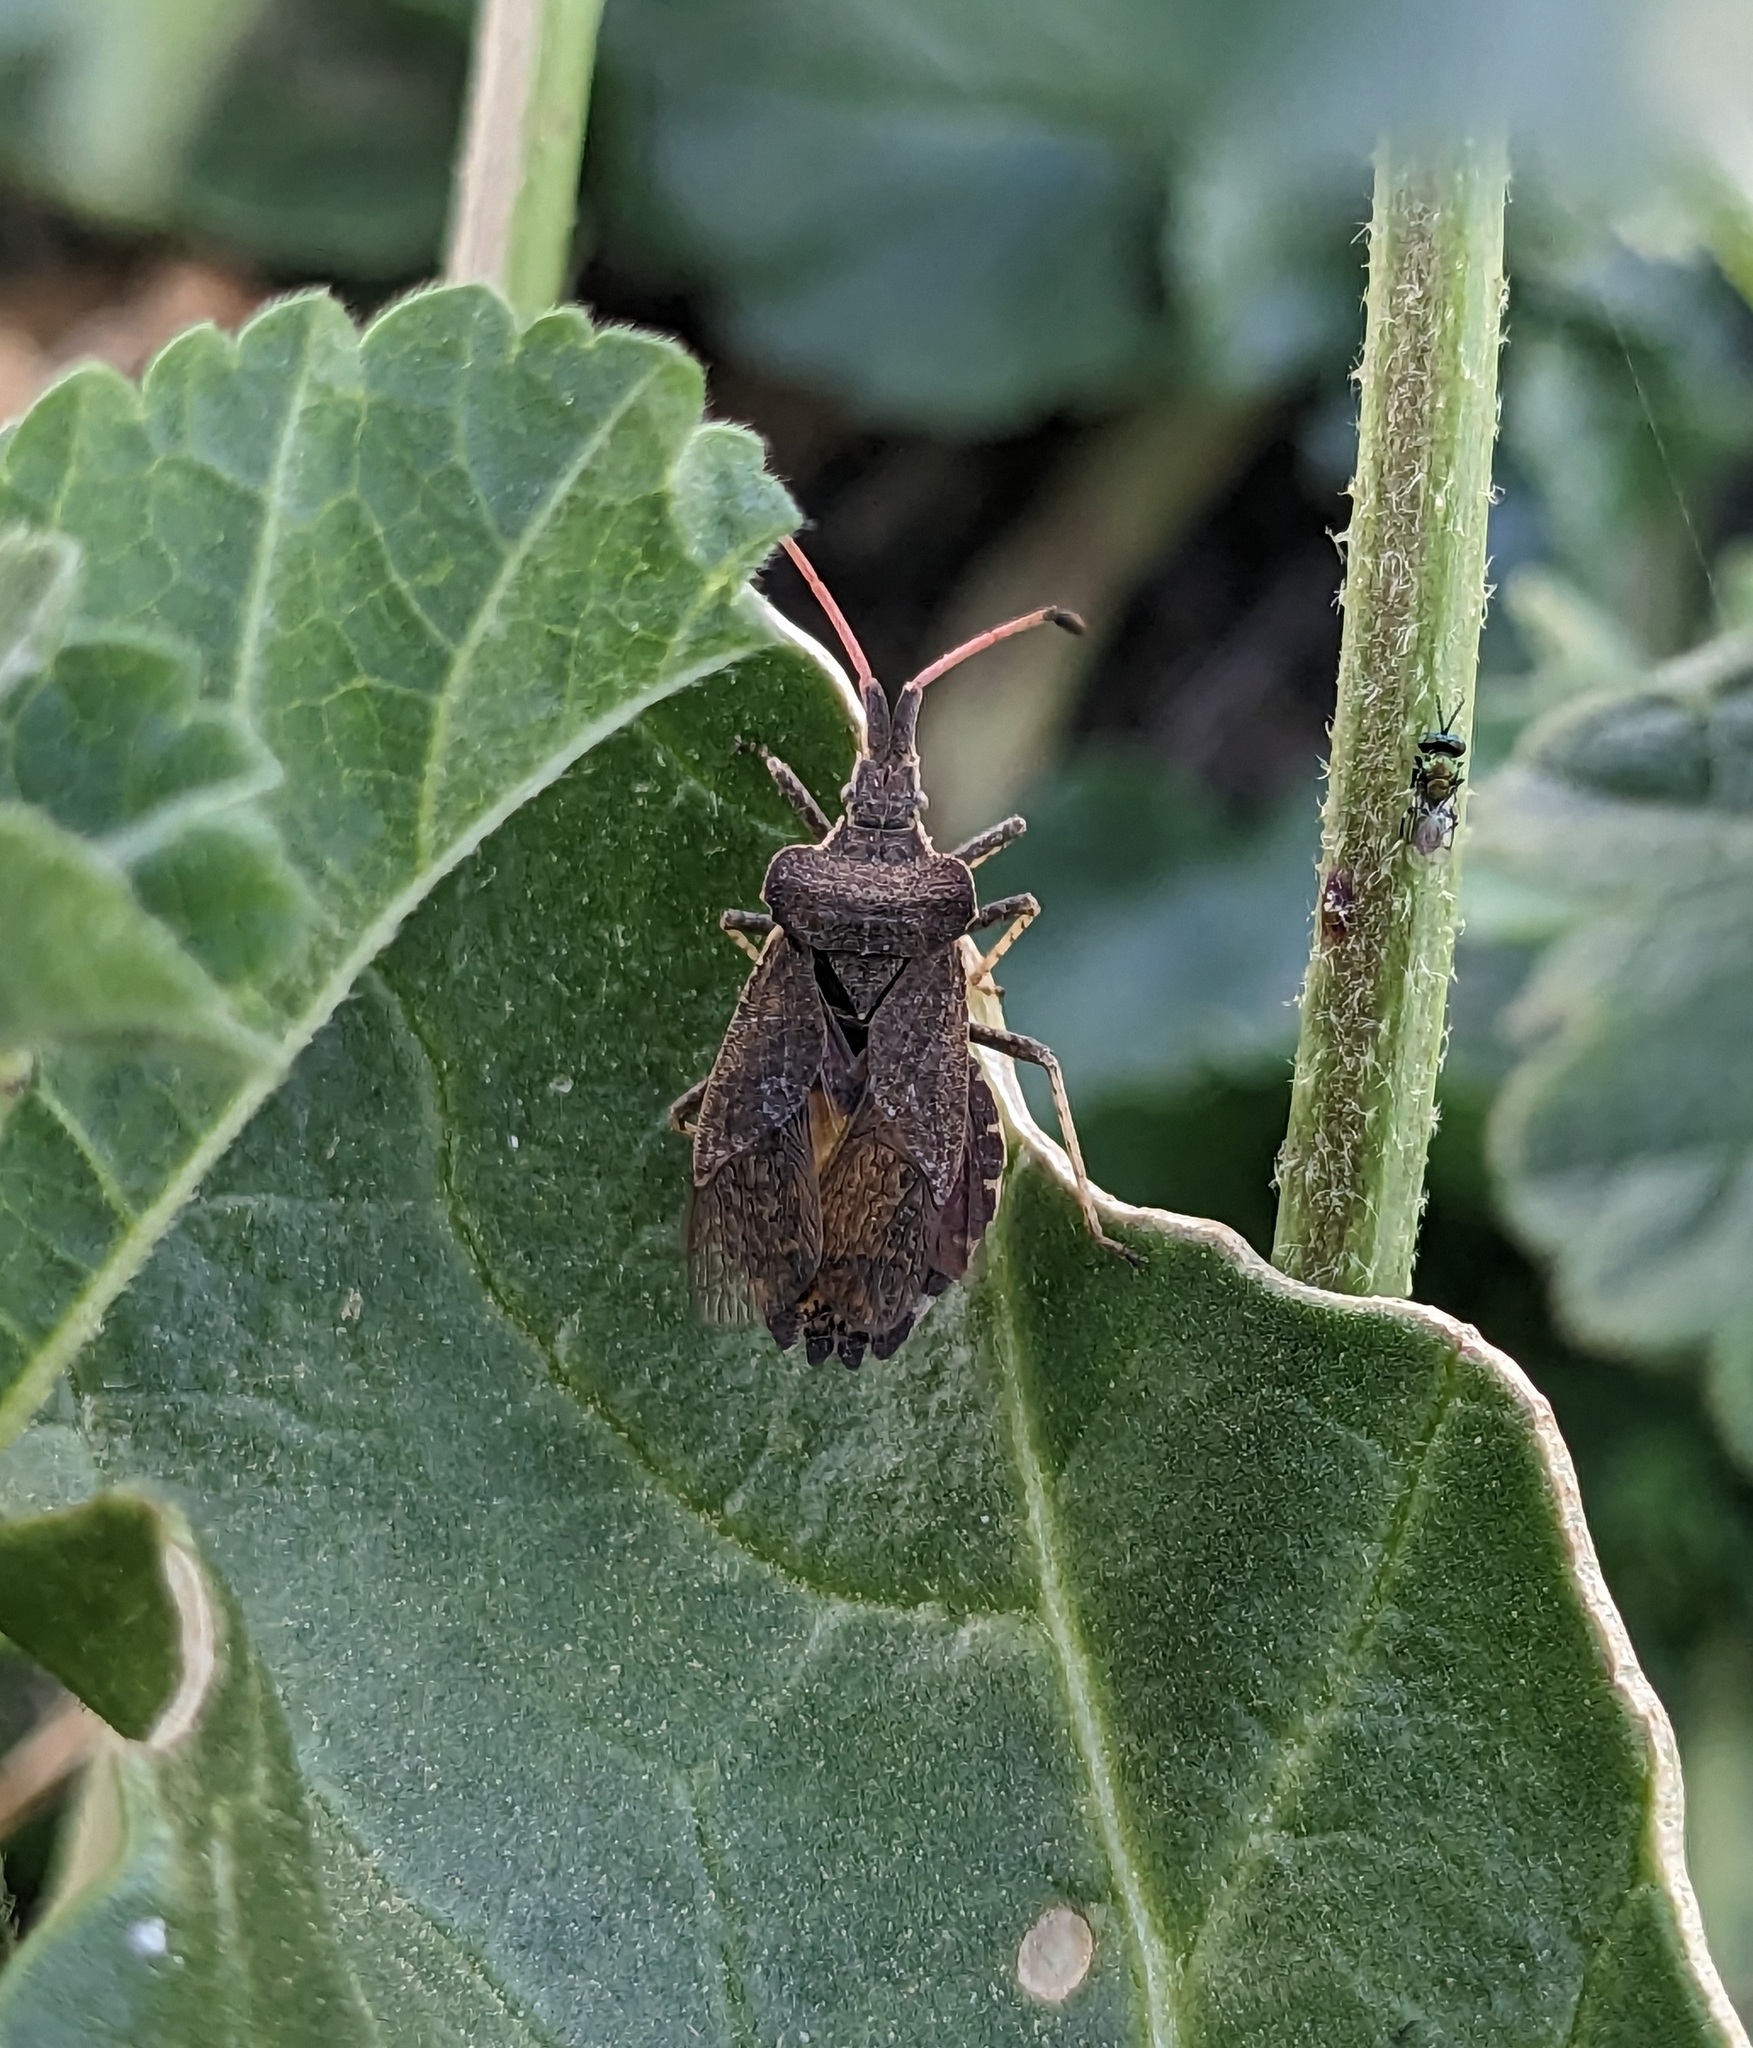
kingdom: Animalia
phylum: Arthropoda
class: Insecta
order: Hemiptera
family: Coreidae
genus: Enoplops
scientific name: Enoplops scapha
